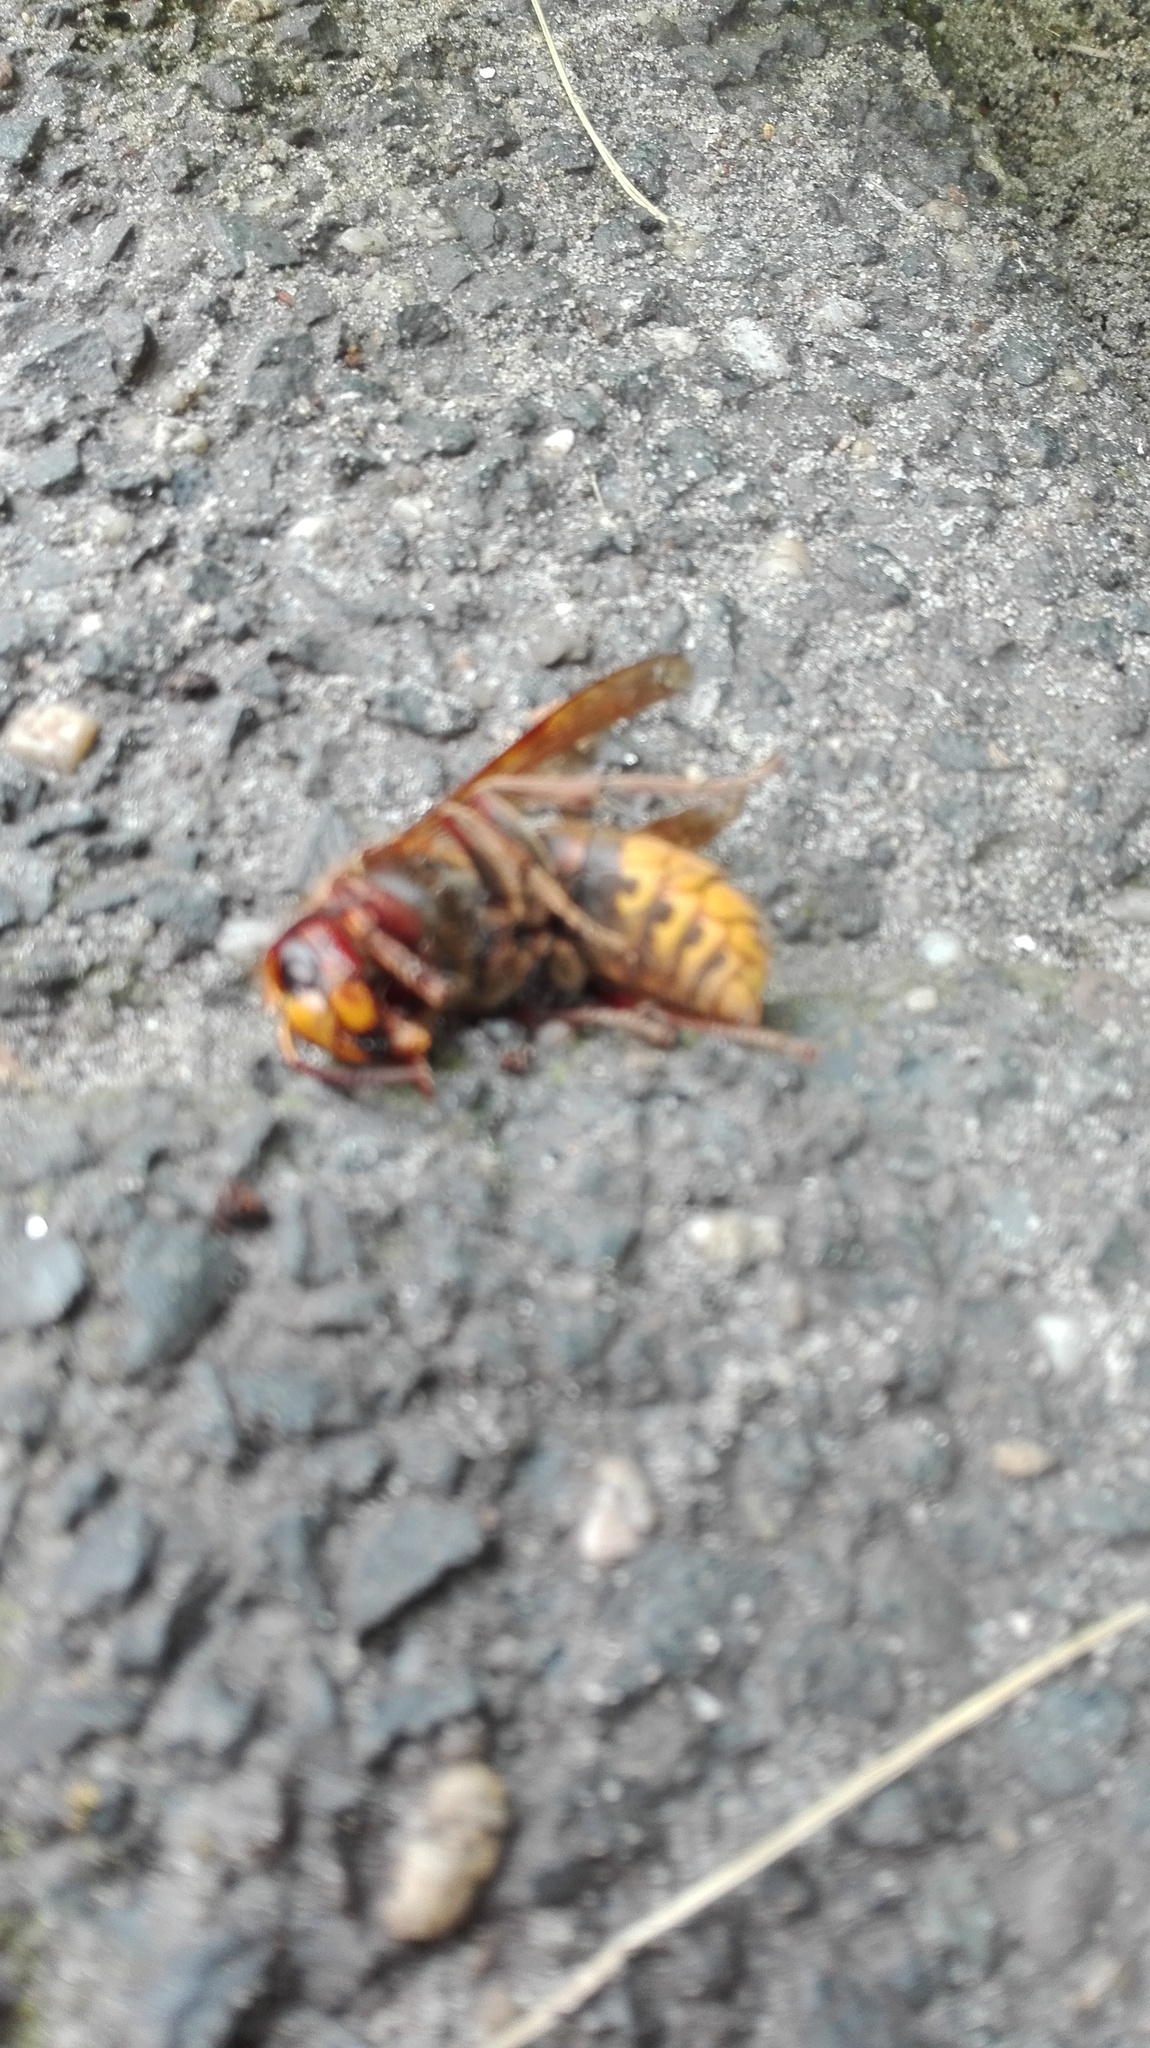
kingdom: Animalia
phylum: Arthropoda
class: Insecta
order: Hymenoptera
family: Vespidae
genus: Vespa
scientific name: Vespa crabro
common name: Hornet
